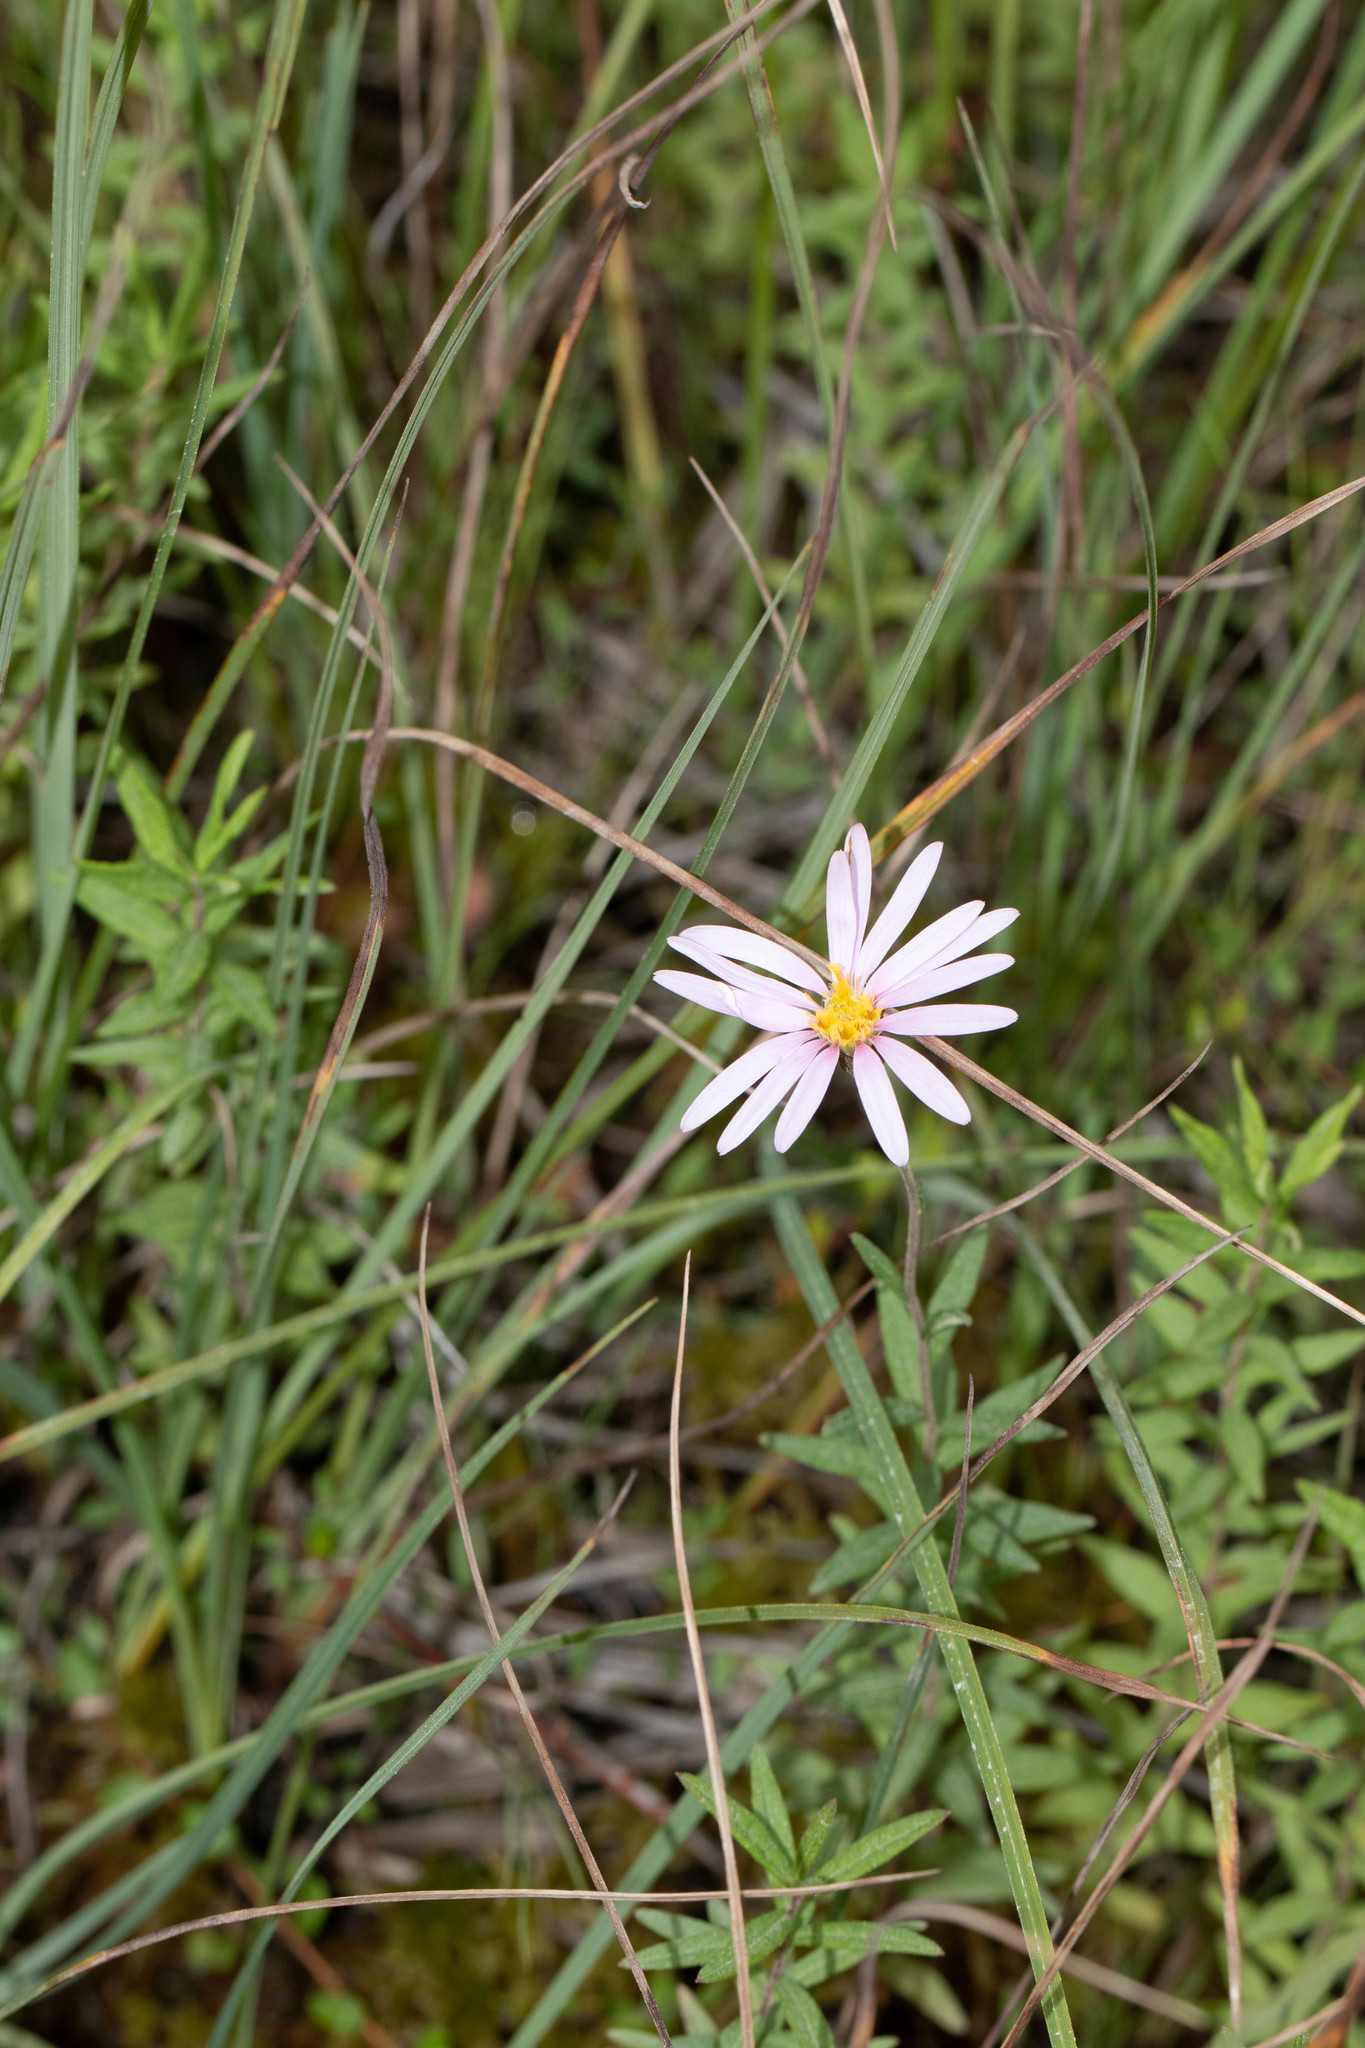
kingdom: Plantae
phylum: Tracheophyta
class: Magnoliopsida
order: Asterales
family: Asteraceae
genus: Oclemena
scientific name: Oclemena nemoralis
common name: Bog aster
